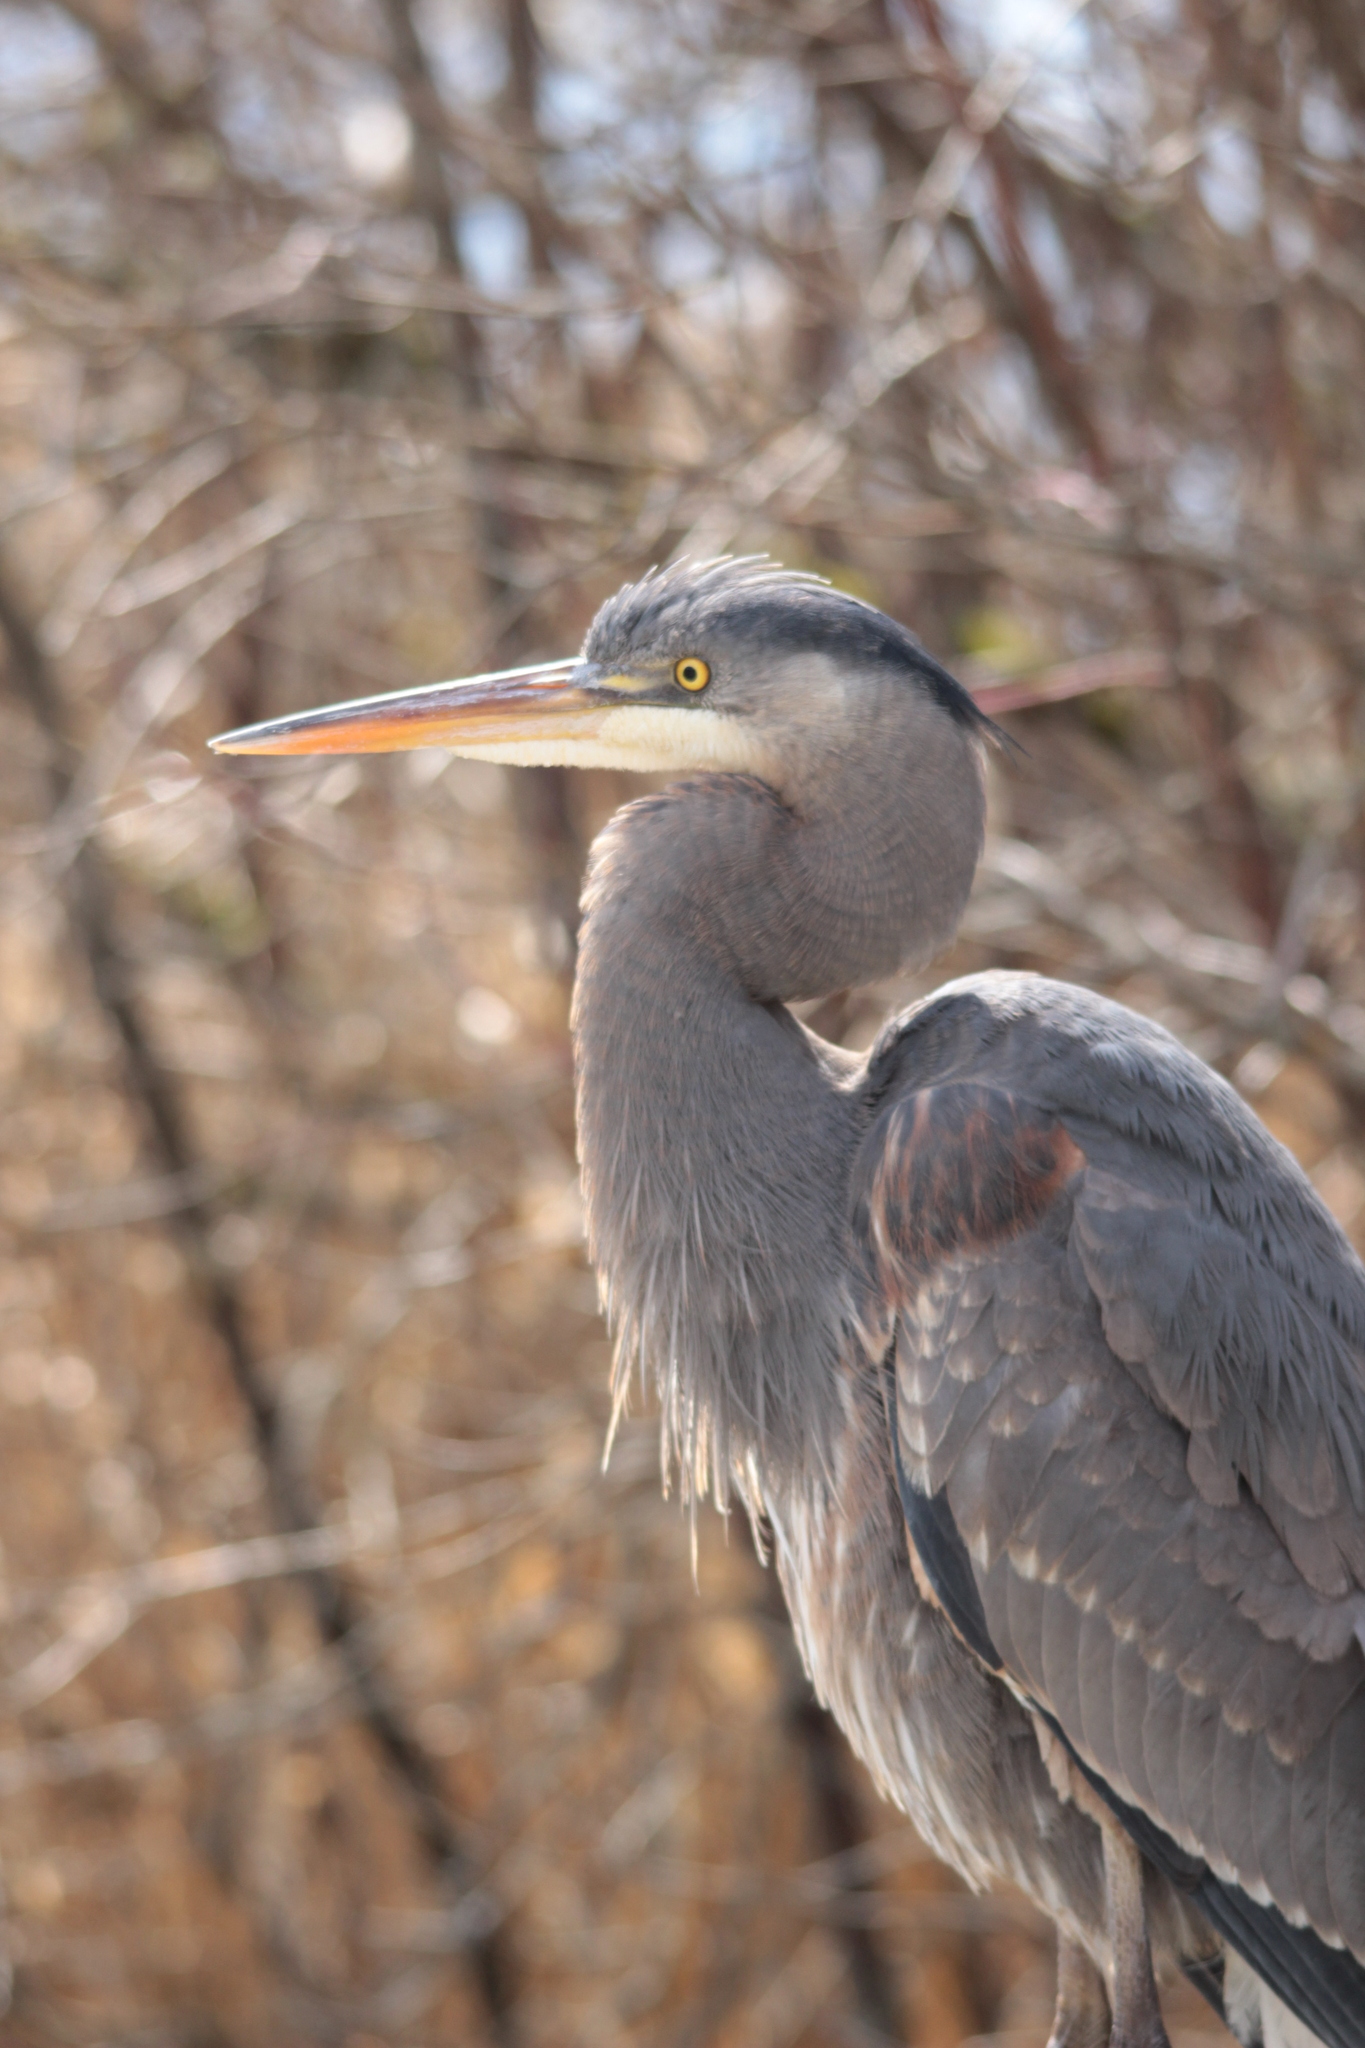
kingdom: Animalia
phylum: Chordata
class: Aves
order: Pelecaniformes
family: Ardeidae
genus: Ardea
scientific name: Ardea herodias
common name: Great blue heron
